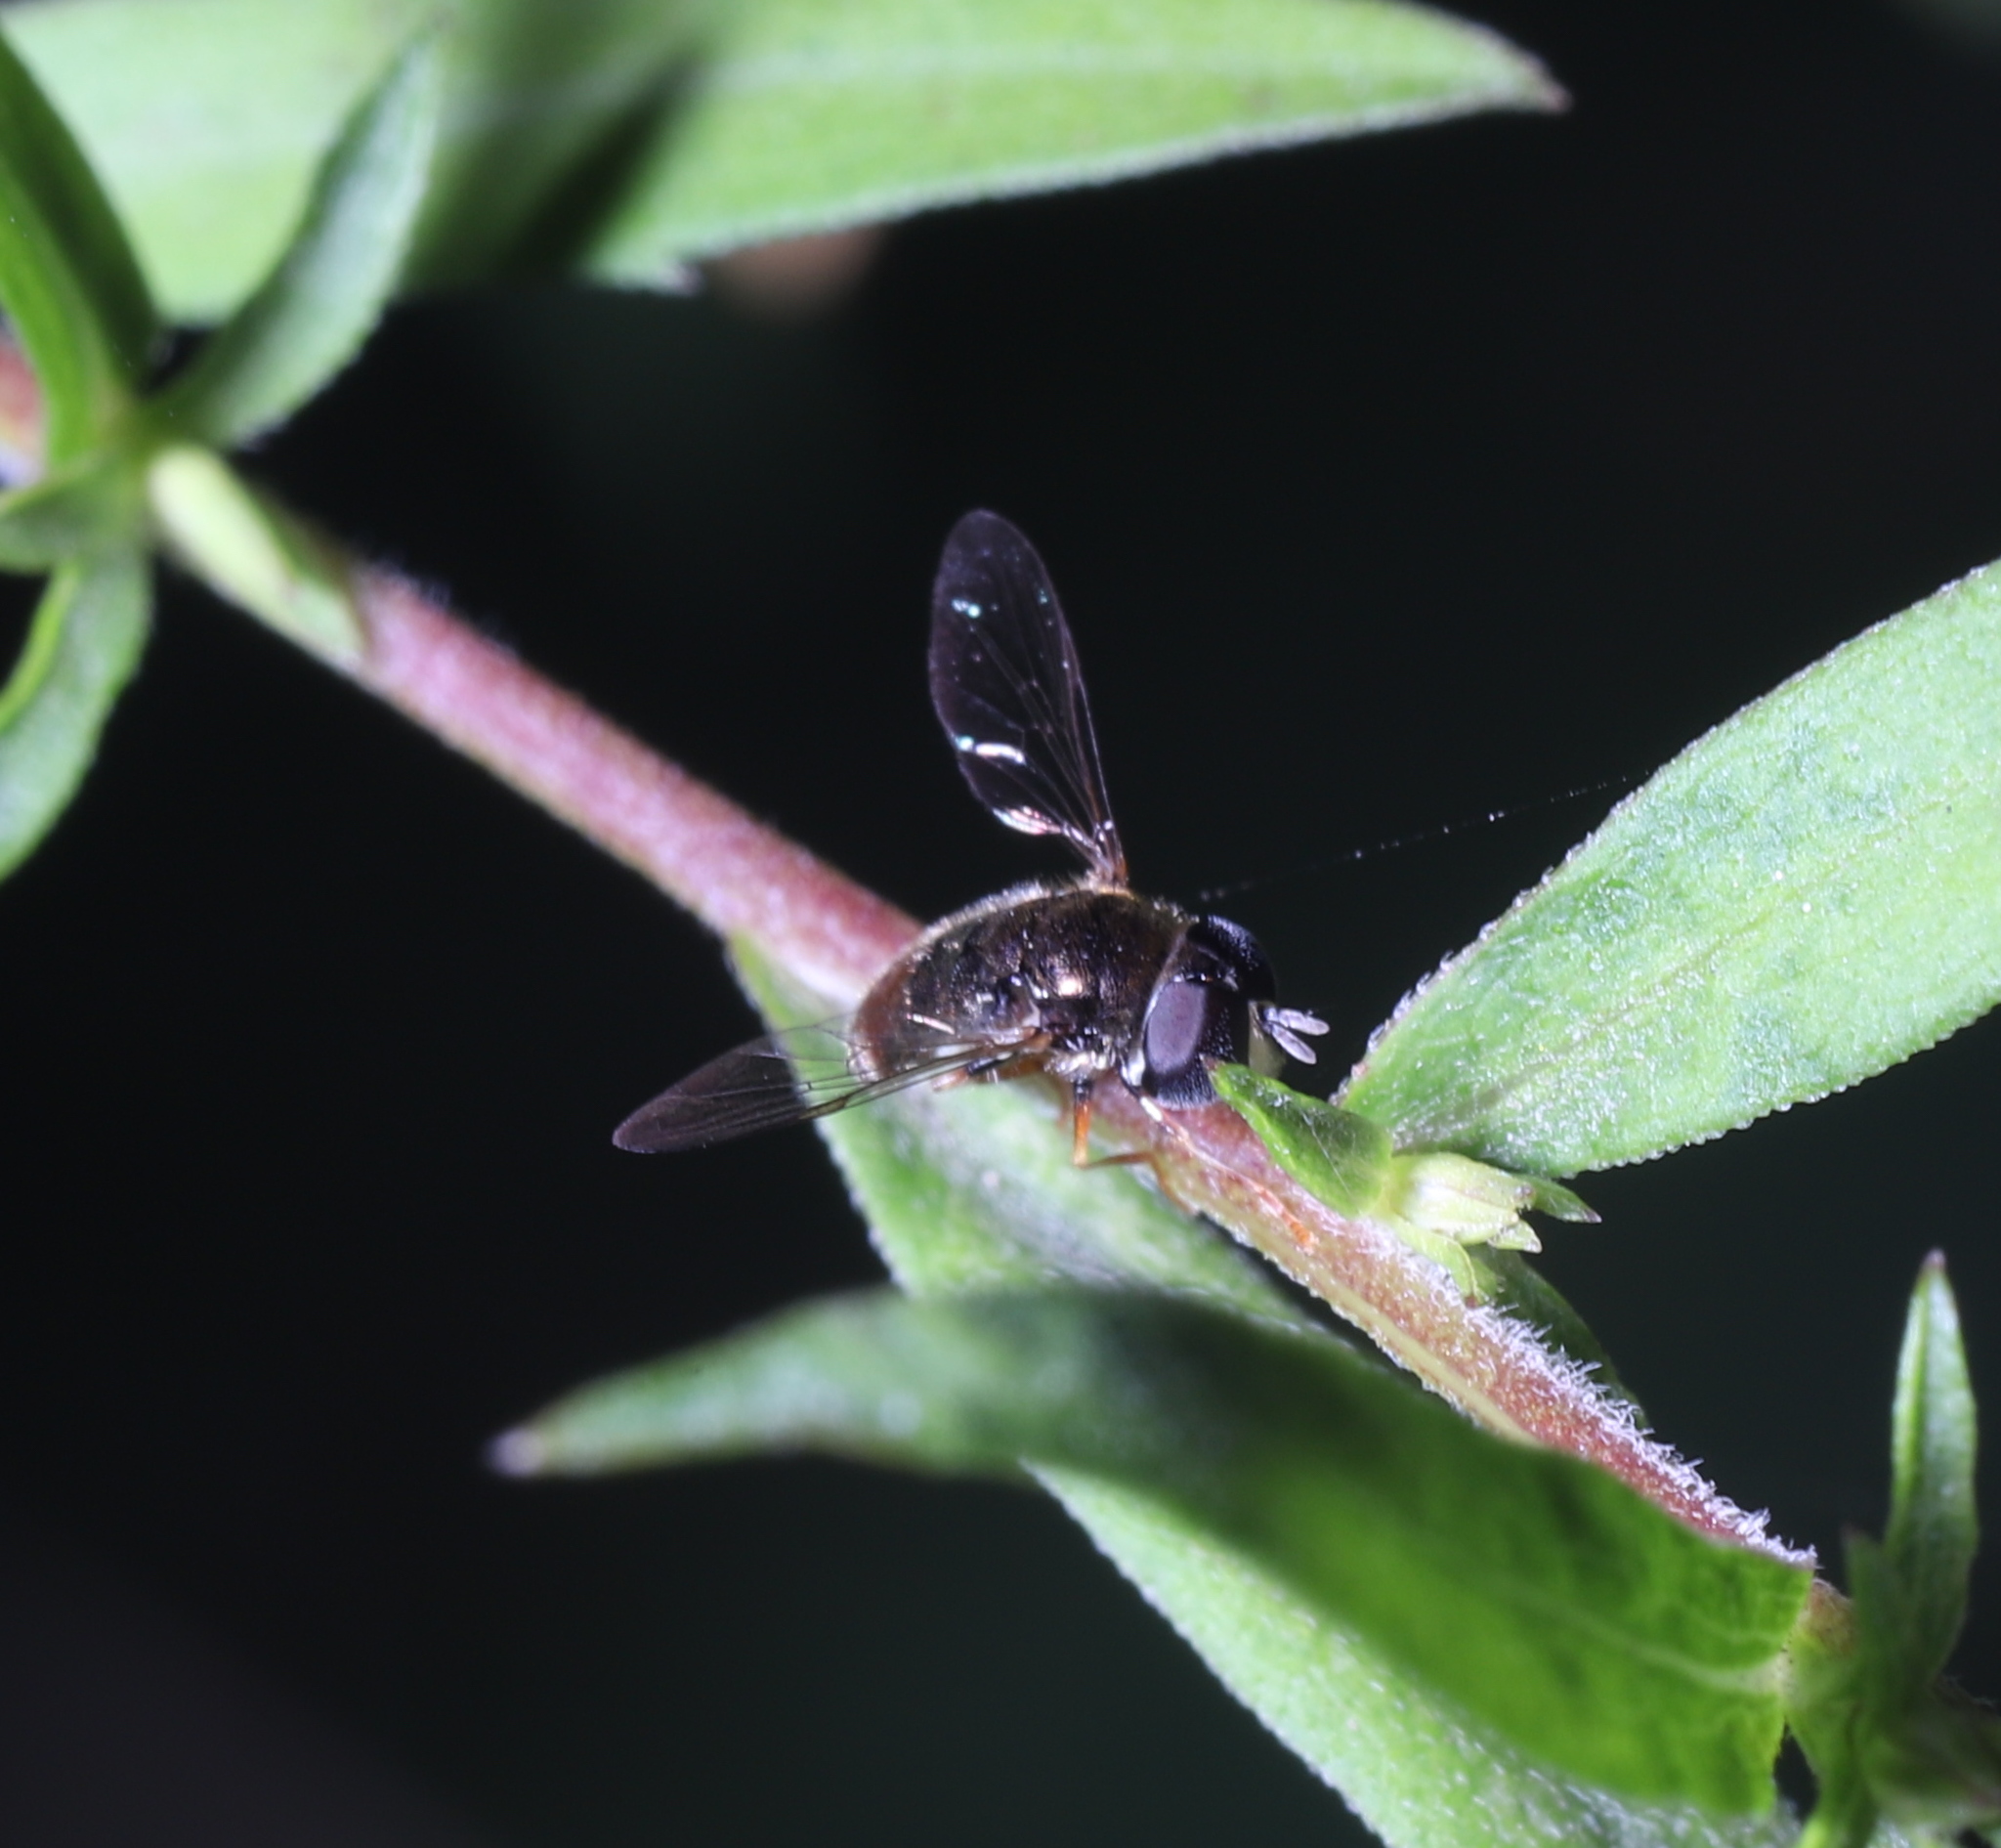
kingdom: Animalia
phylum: Arthropoda
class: Insecta
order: Diptera
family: Syrphidae
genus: Paragus
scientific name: Paragus haemorrhous
